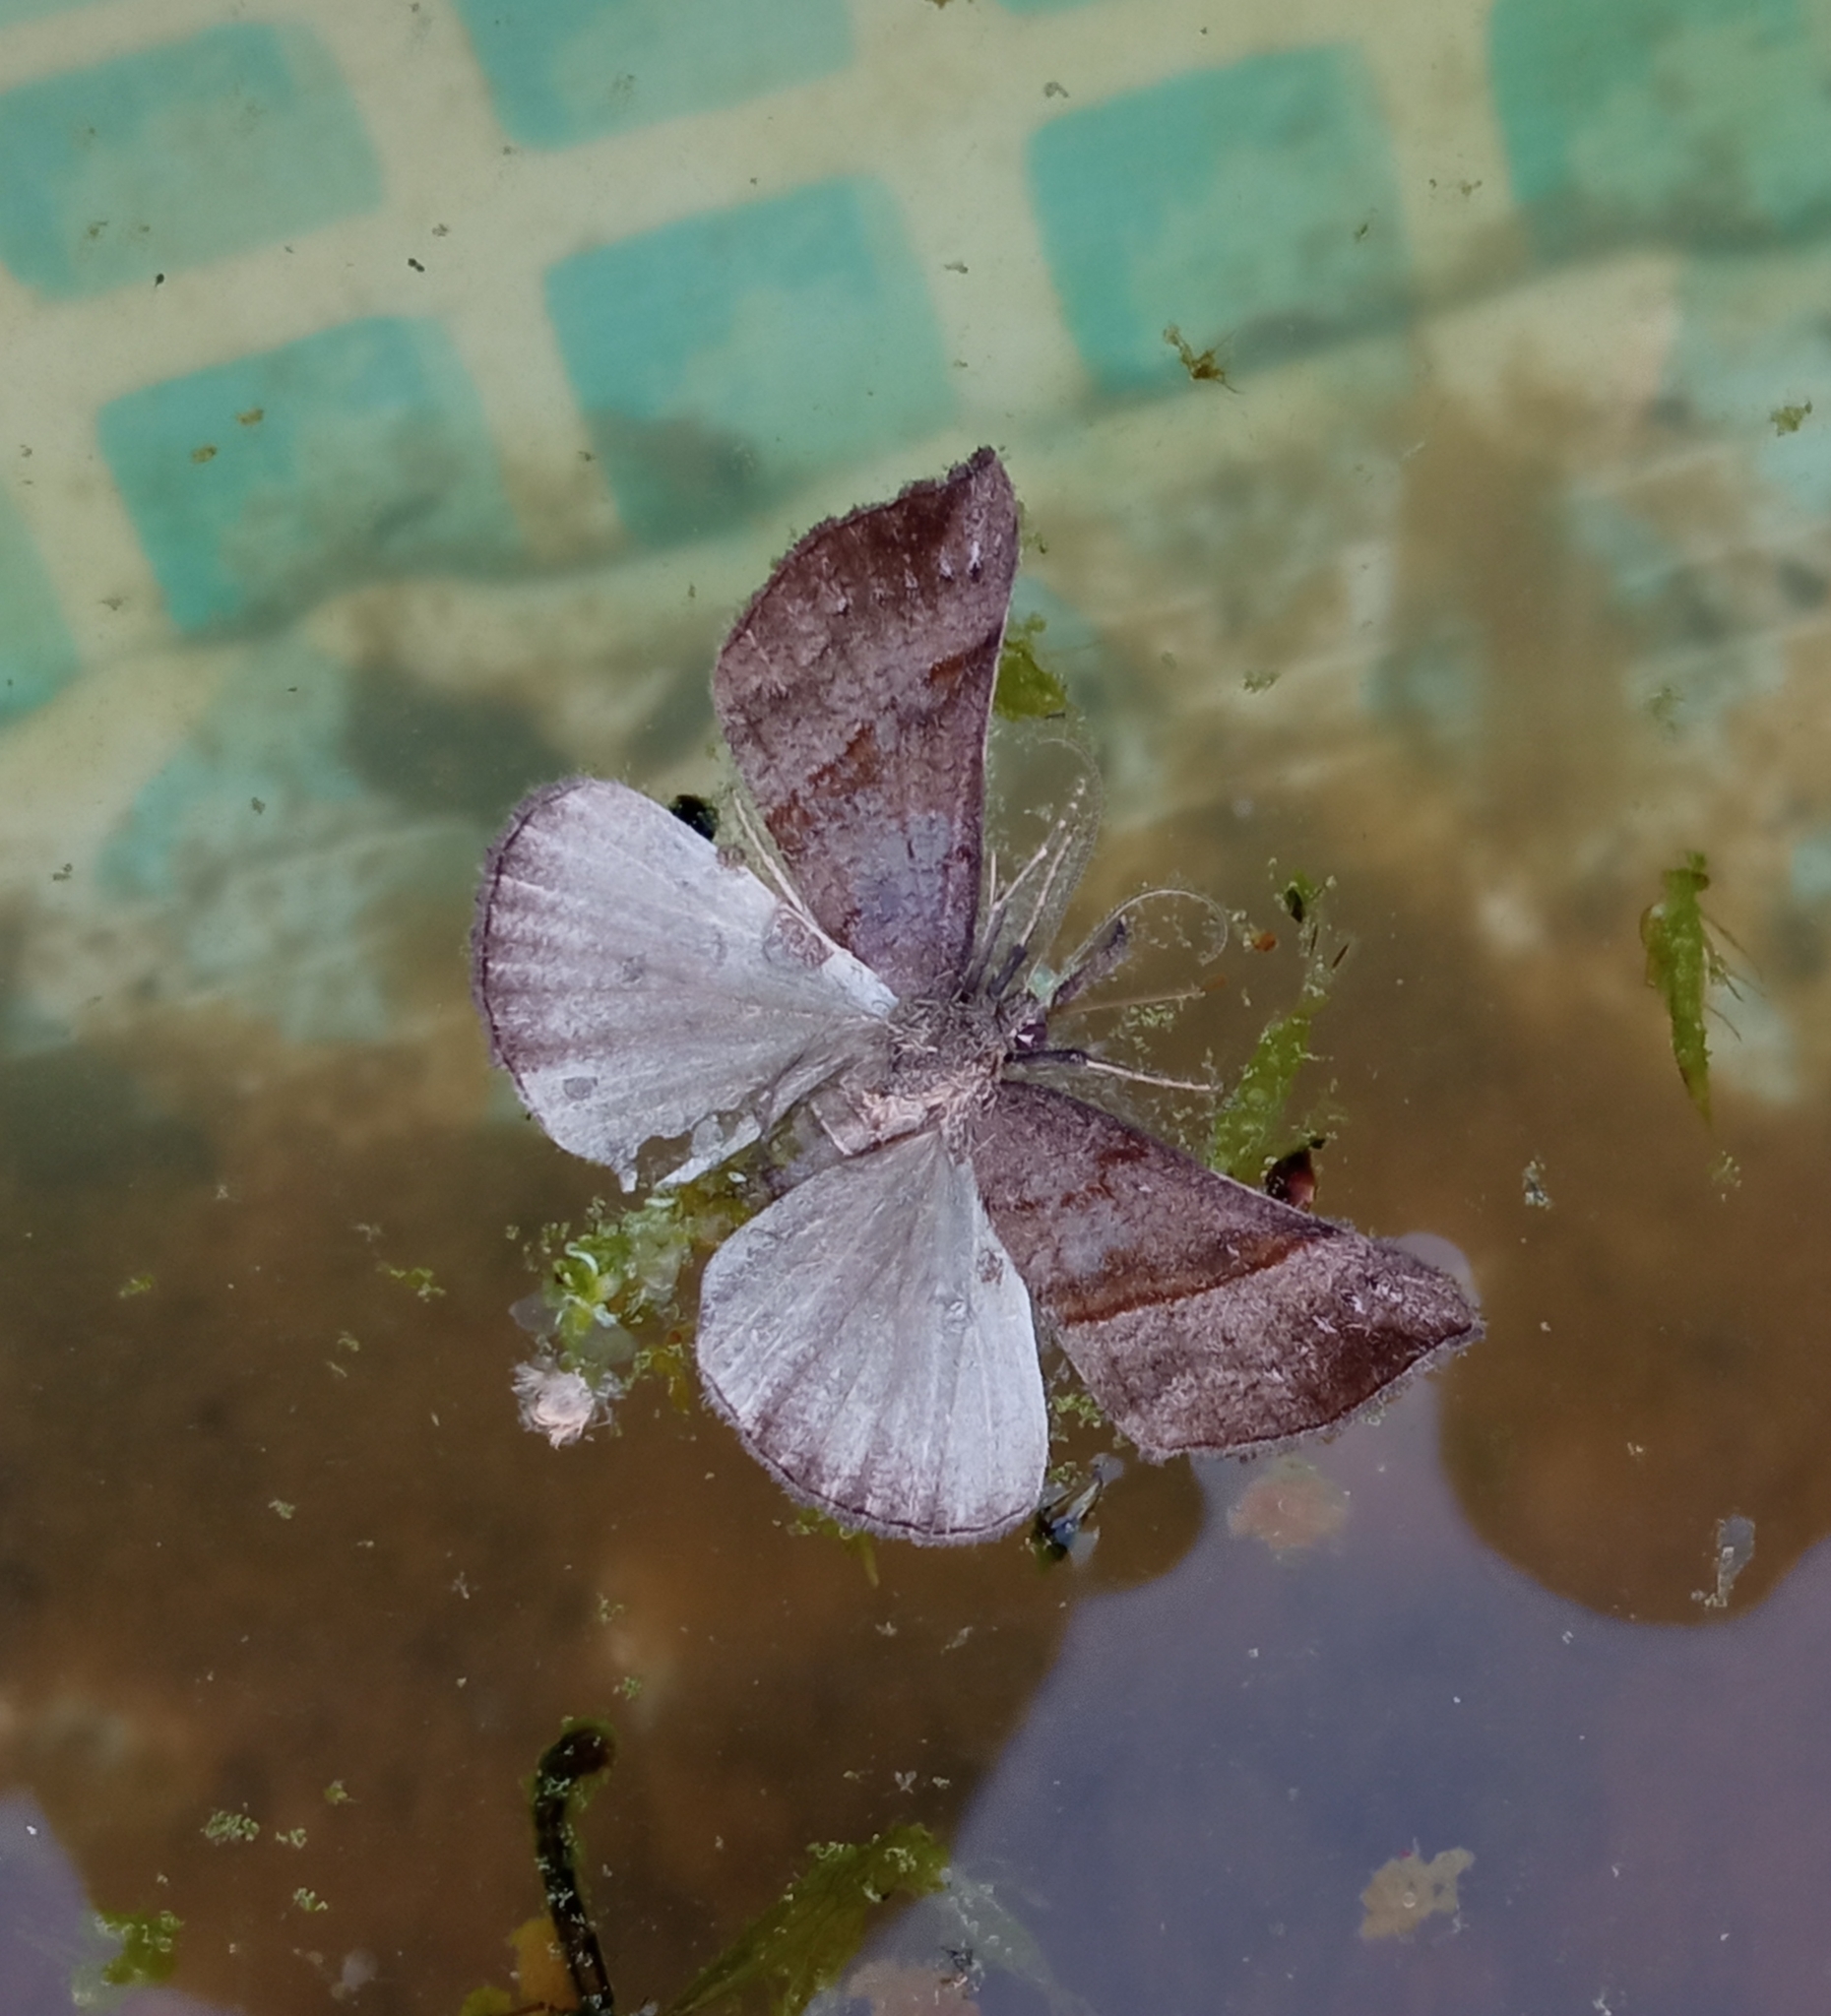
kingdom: Animalia
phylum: Arthropoda
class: Insecta
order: Lepidoptera
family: Erebidae
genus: Hypena
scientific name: Hypena proboscidalis
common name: Snout
